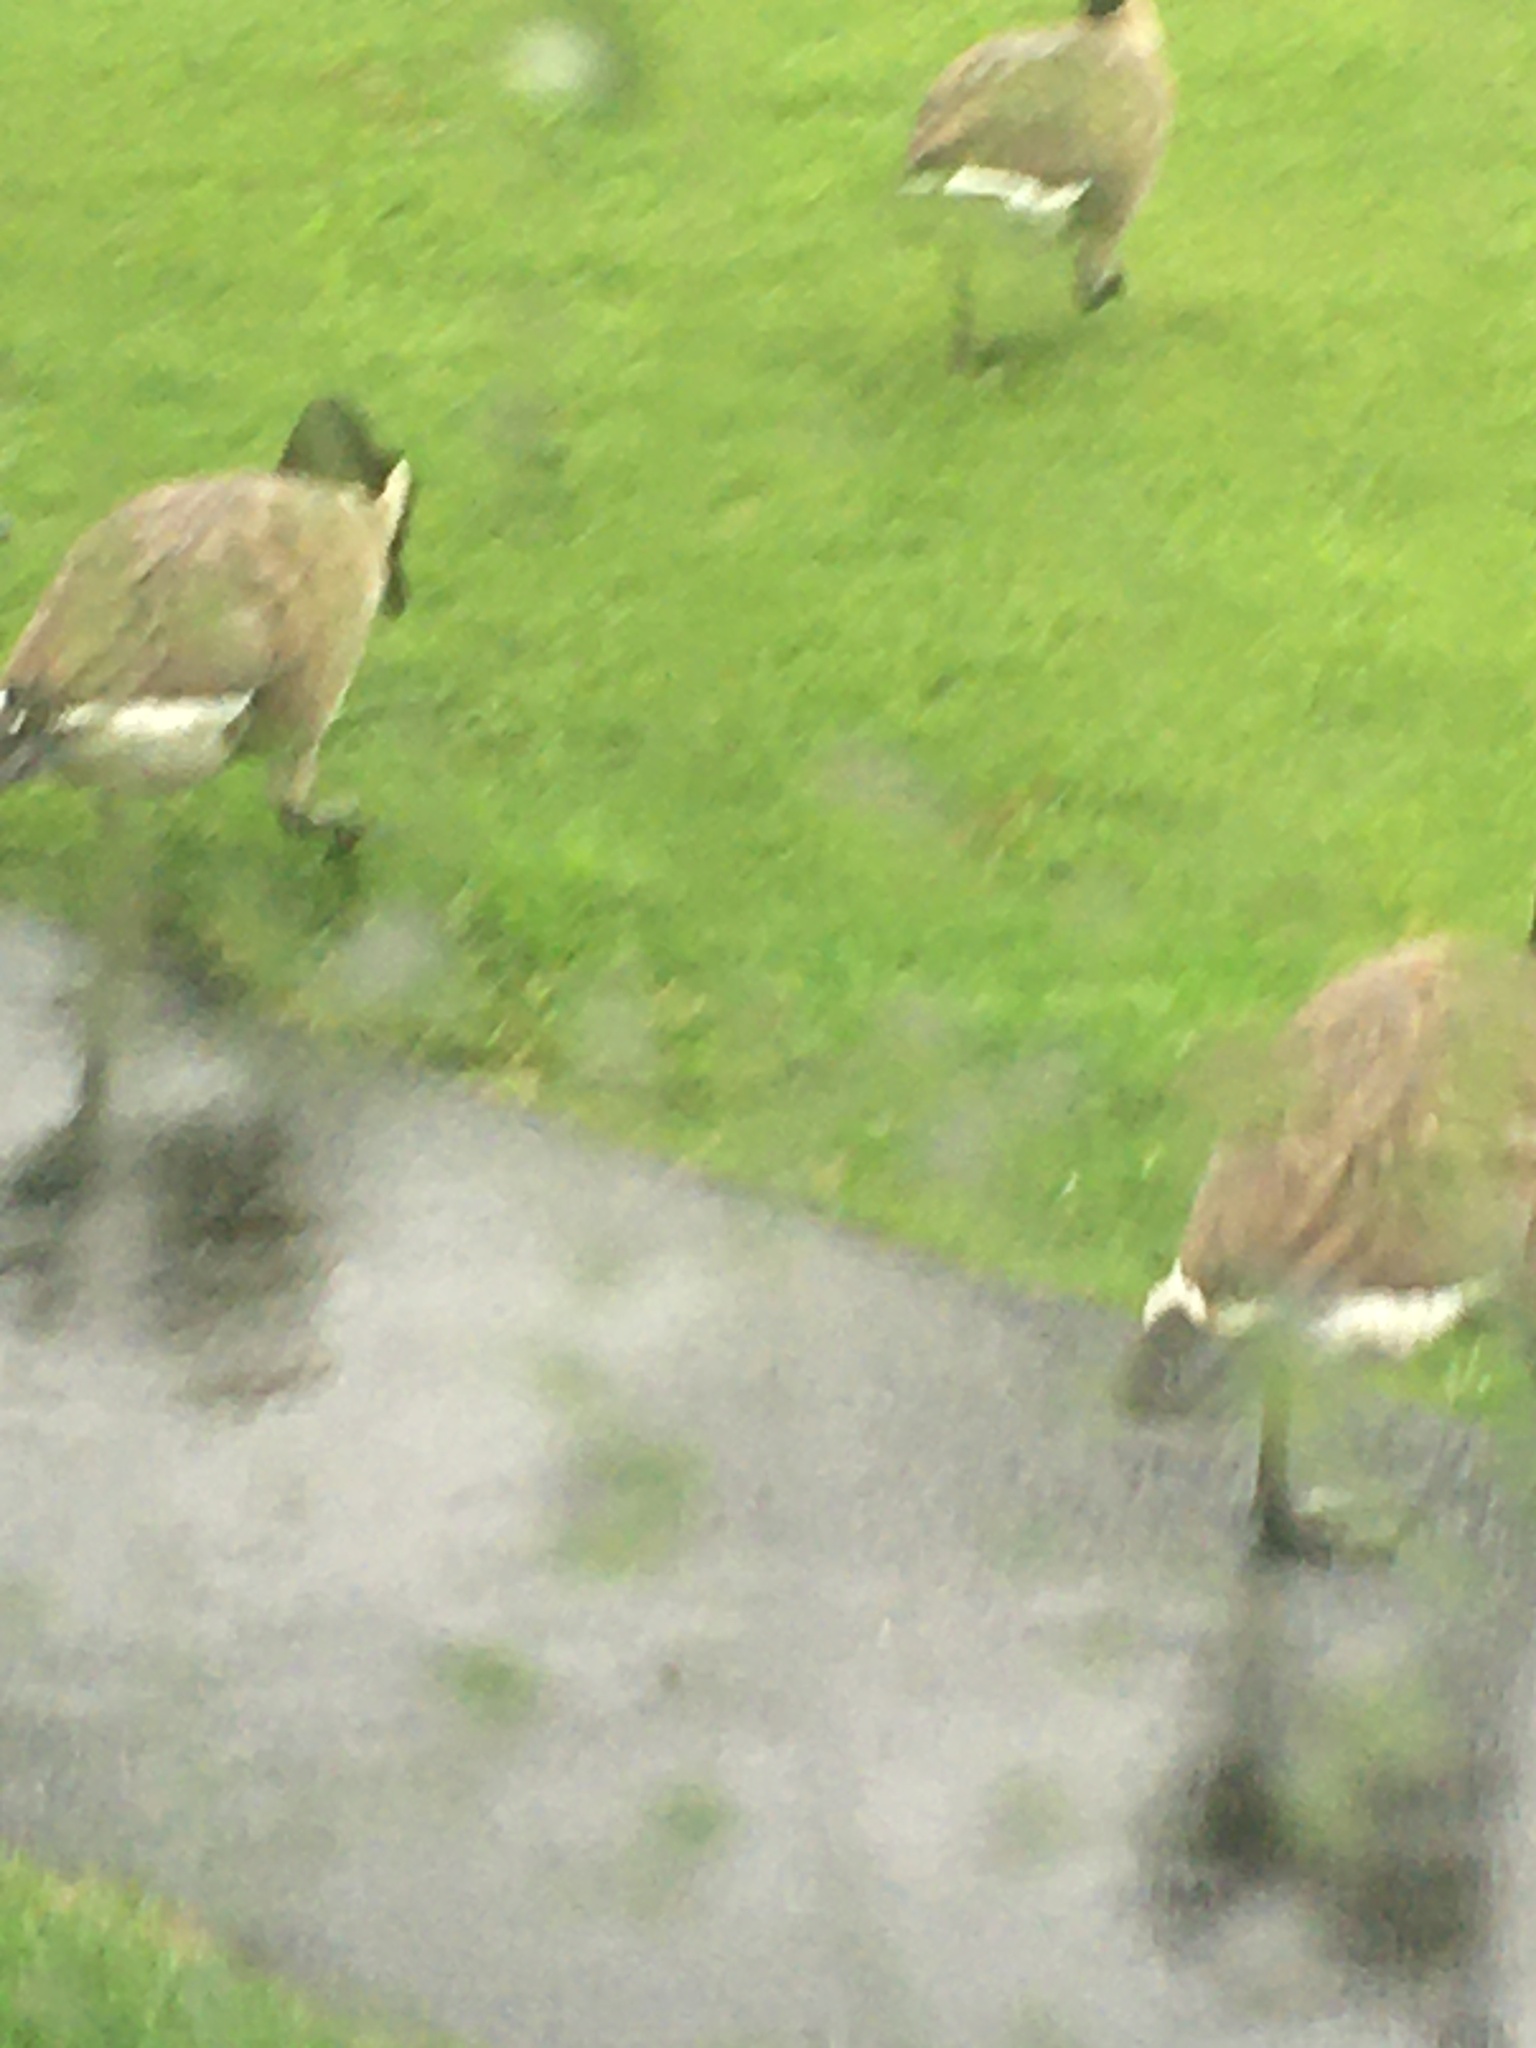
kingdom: Animalia
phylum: Chordata
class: Aves
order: Anseriformes
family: Anatidae
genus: Branta
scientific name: Branta canadensis
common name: Canada goose
